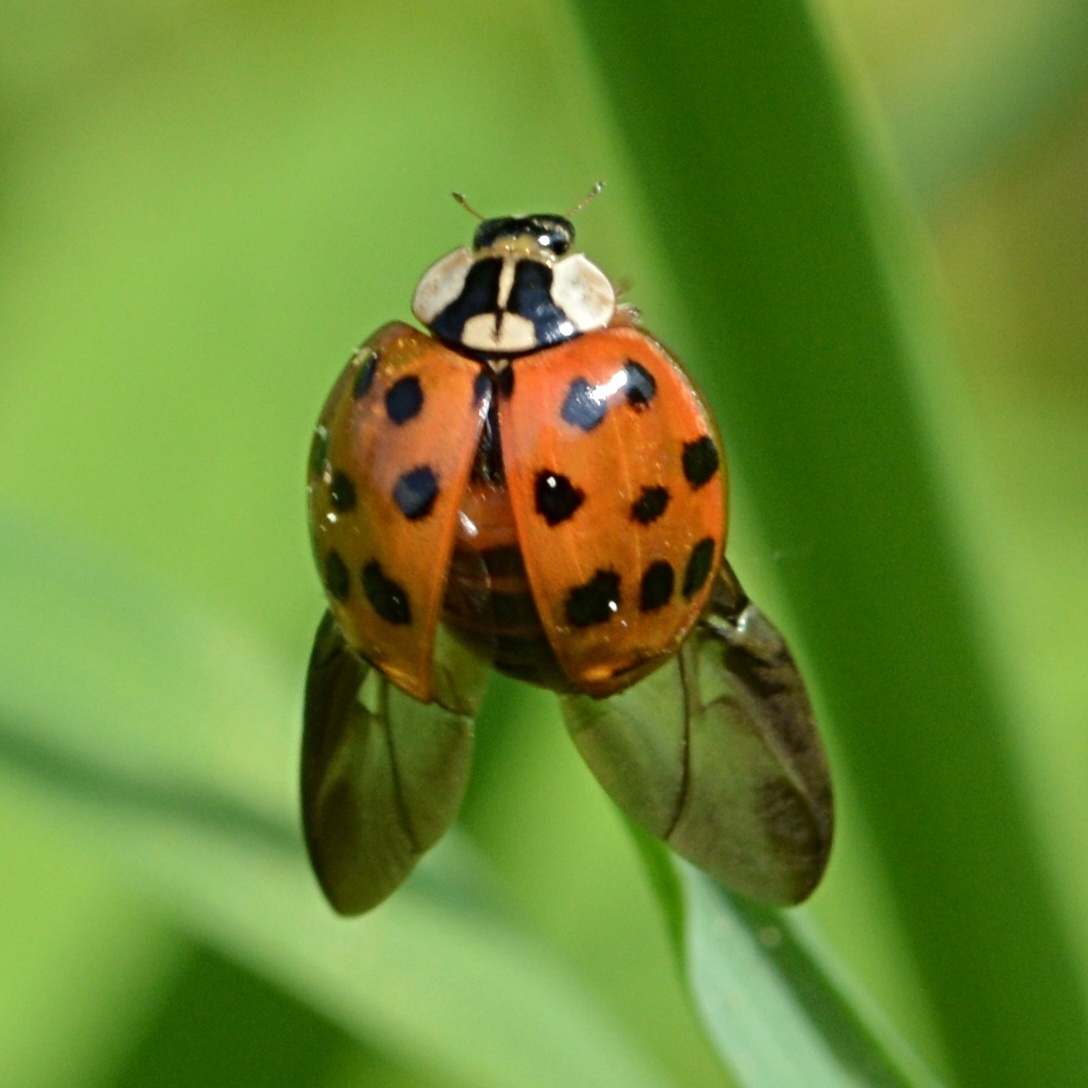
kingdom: Animalia
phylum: Arthropoda
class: Insecta
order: Coleoptera
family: Coccinellidae
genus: Harmonia
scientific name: Harmonia axyridis
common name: Harlequin ladybird
